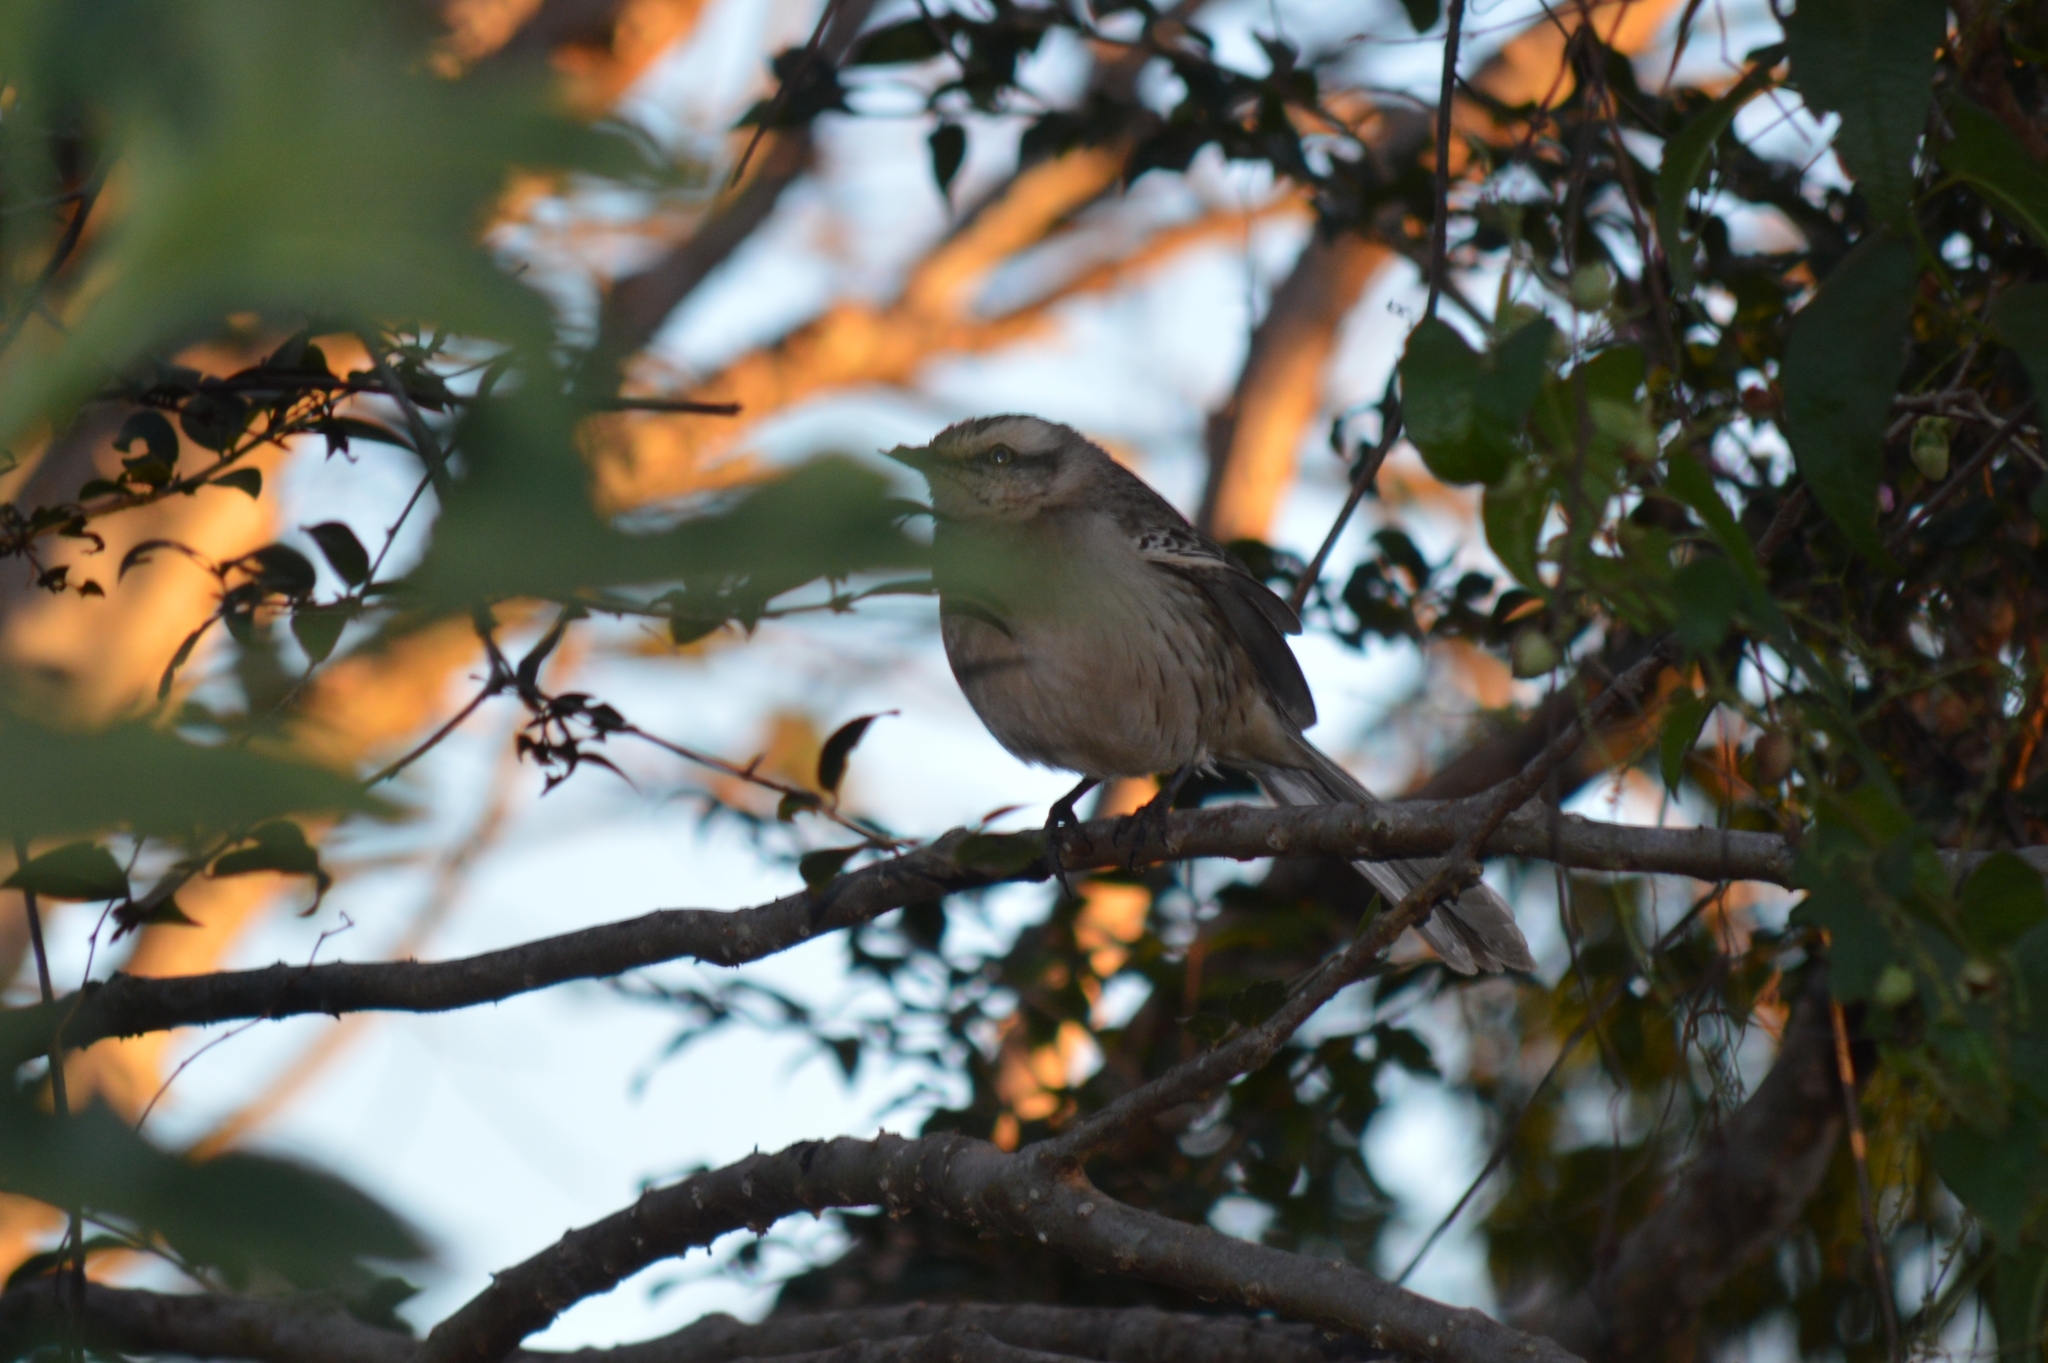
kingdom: Animalia
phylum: Chordata
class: Aves
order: Passeriformes
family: Mimidae
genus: Mimus
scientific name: Mimus saturninus
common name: Chalk-browed mockingbird
